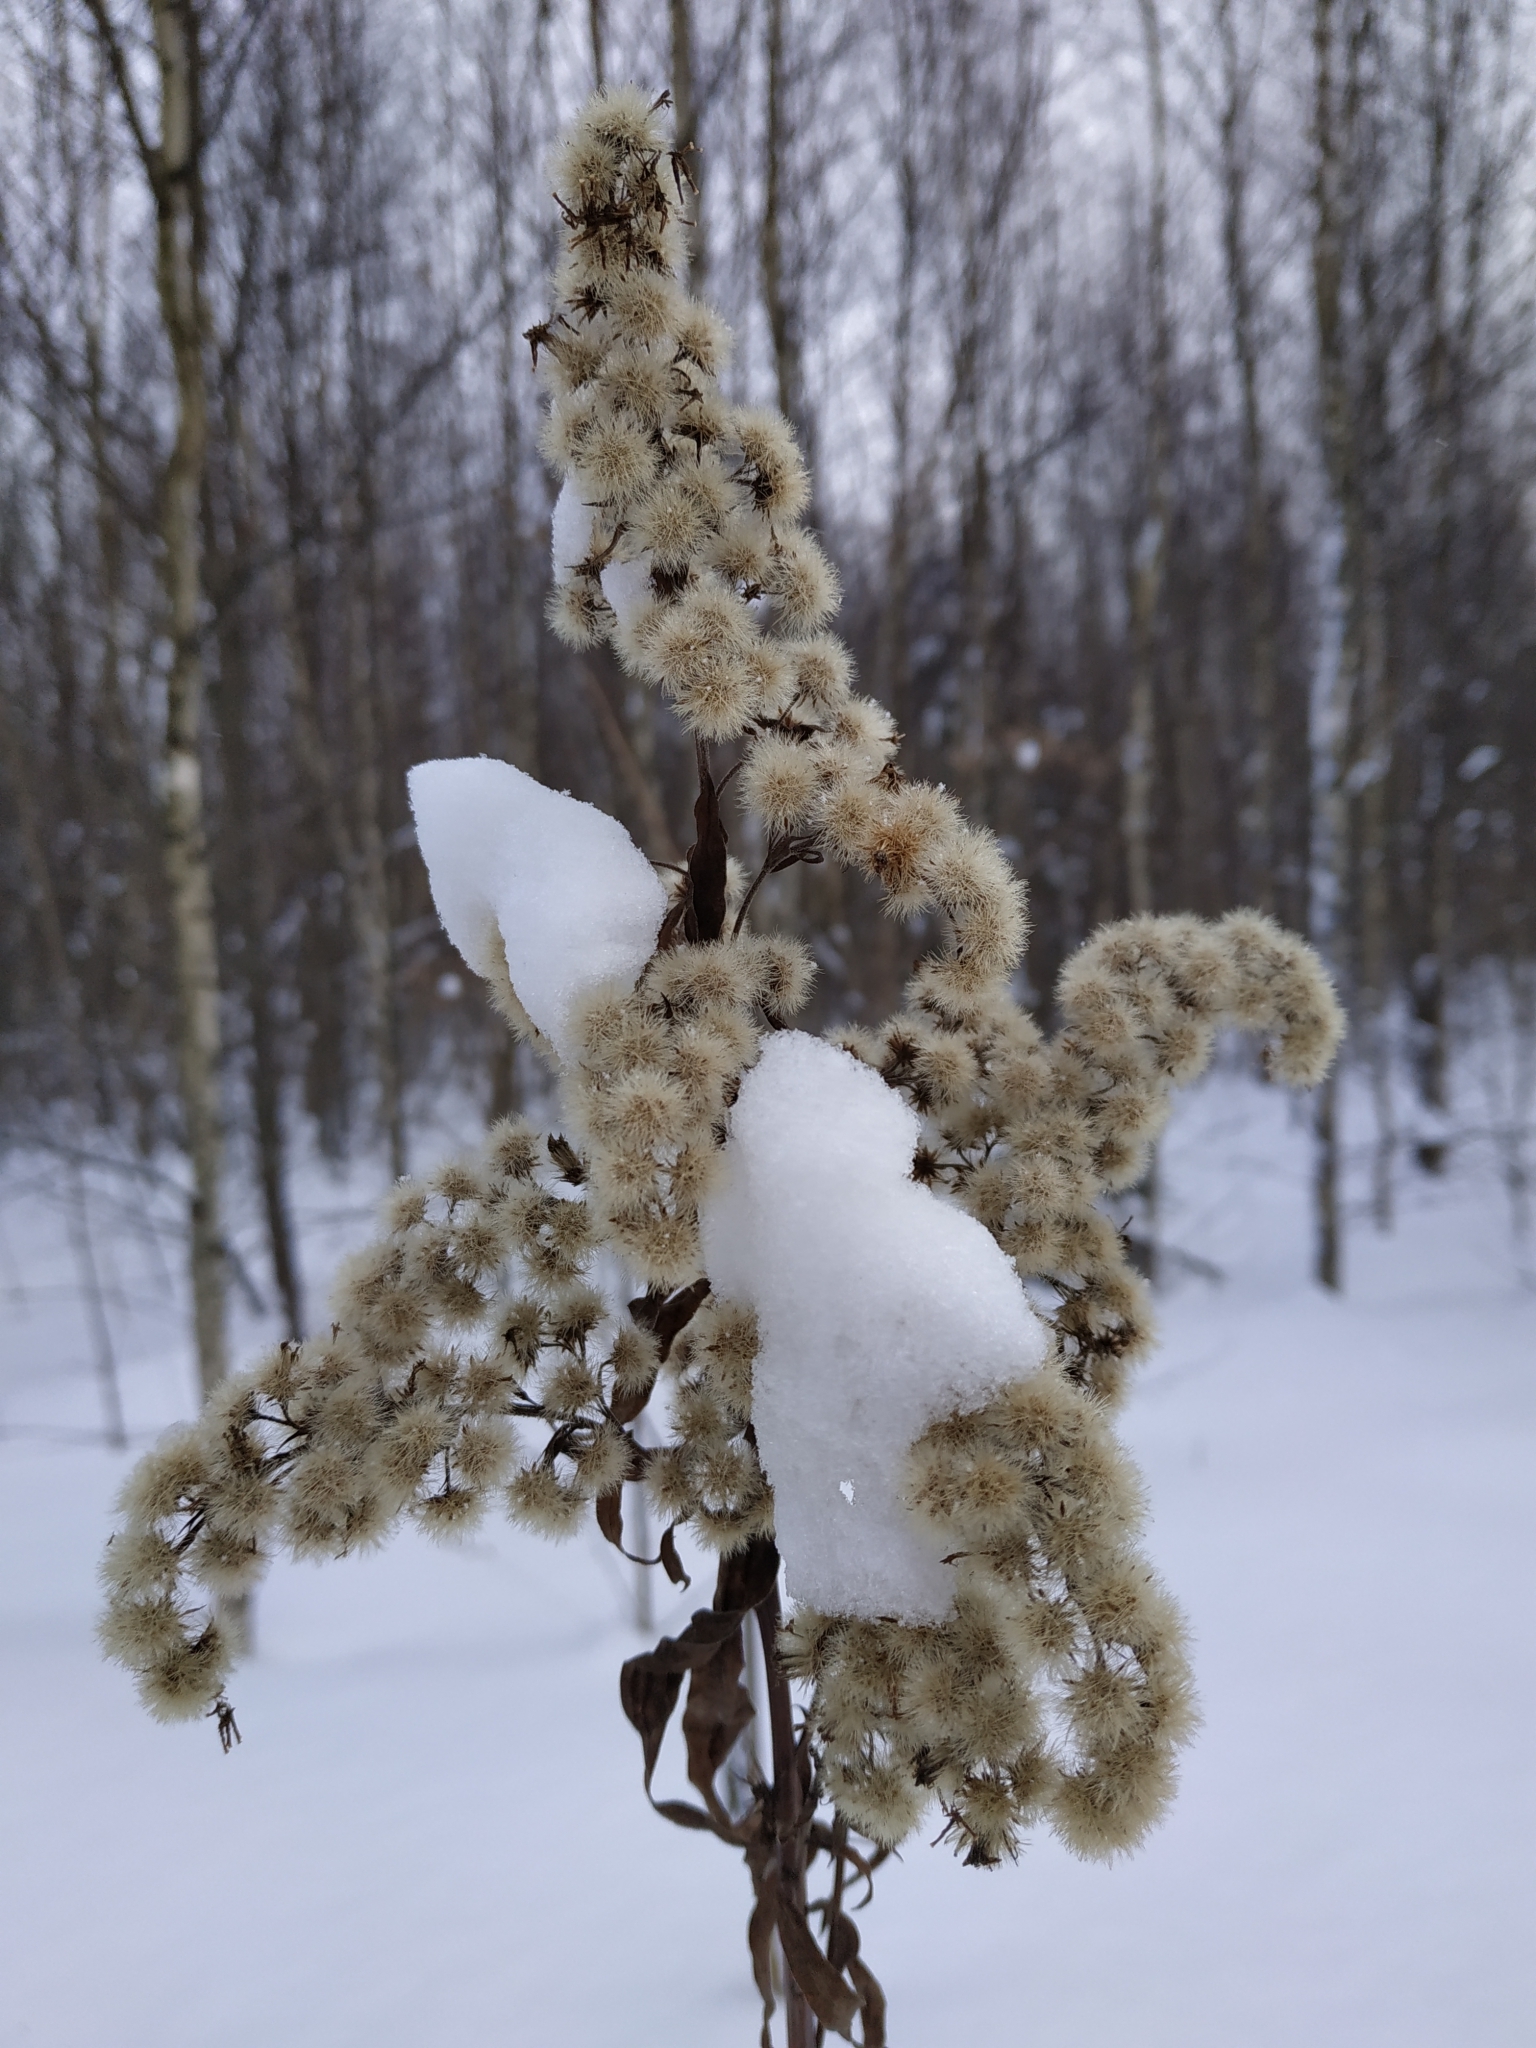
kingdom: Plantae
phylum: Tracheophyta
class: Magnoliopsida
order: Asterales
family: Asteraceae
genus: Solidago
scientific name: Solidago gigantea
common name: Giant goldenrod
